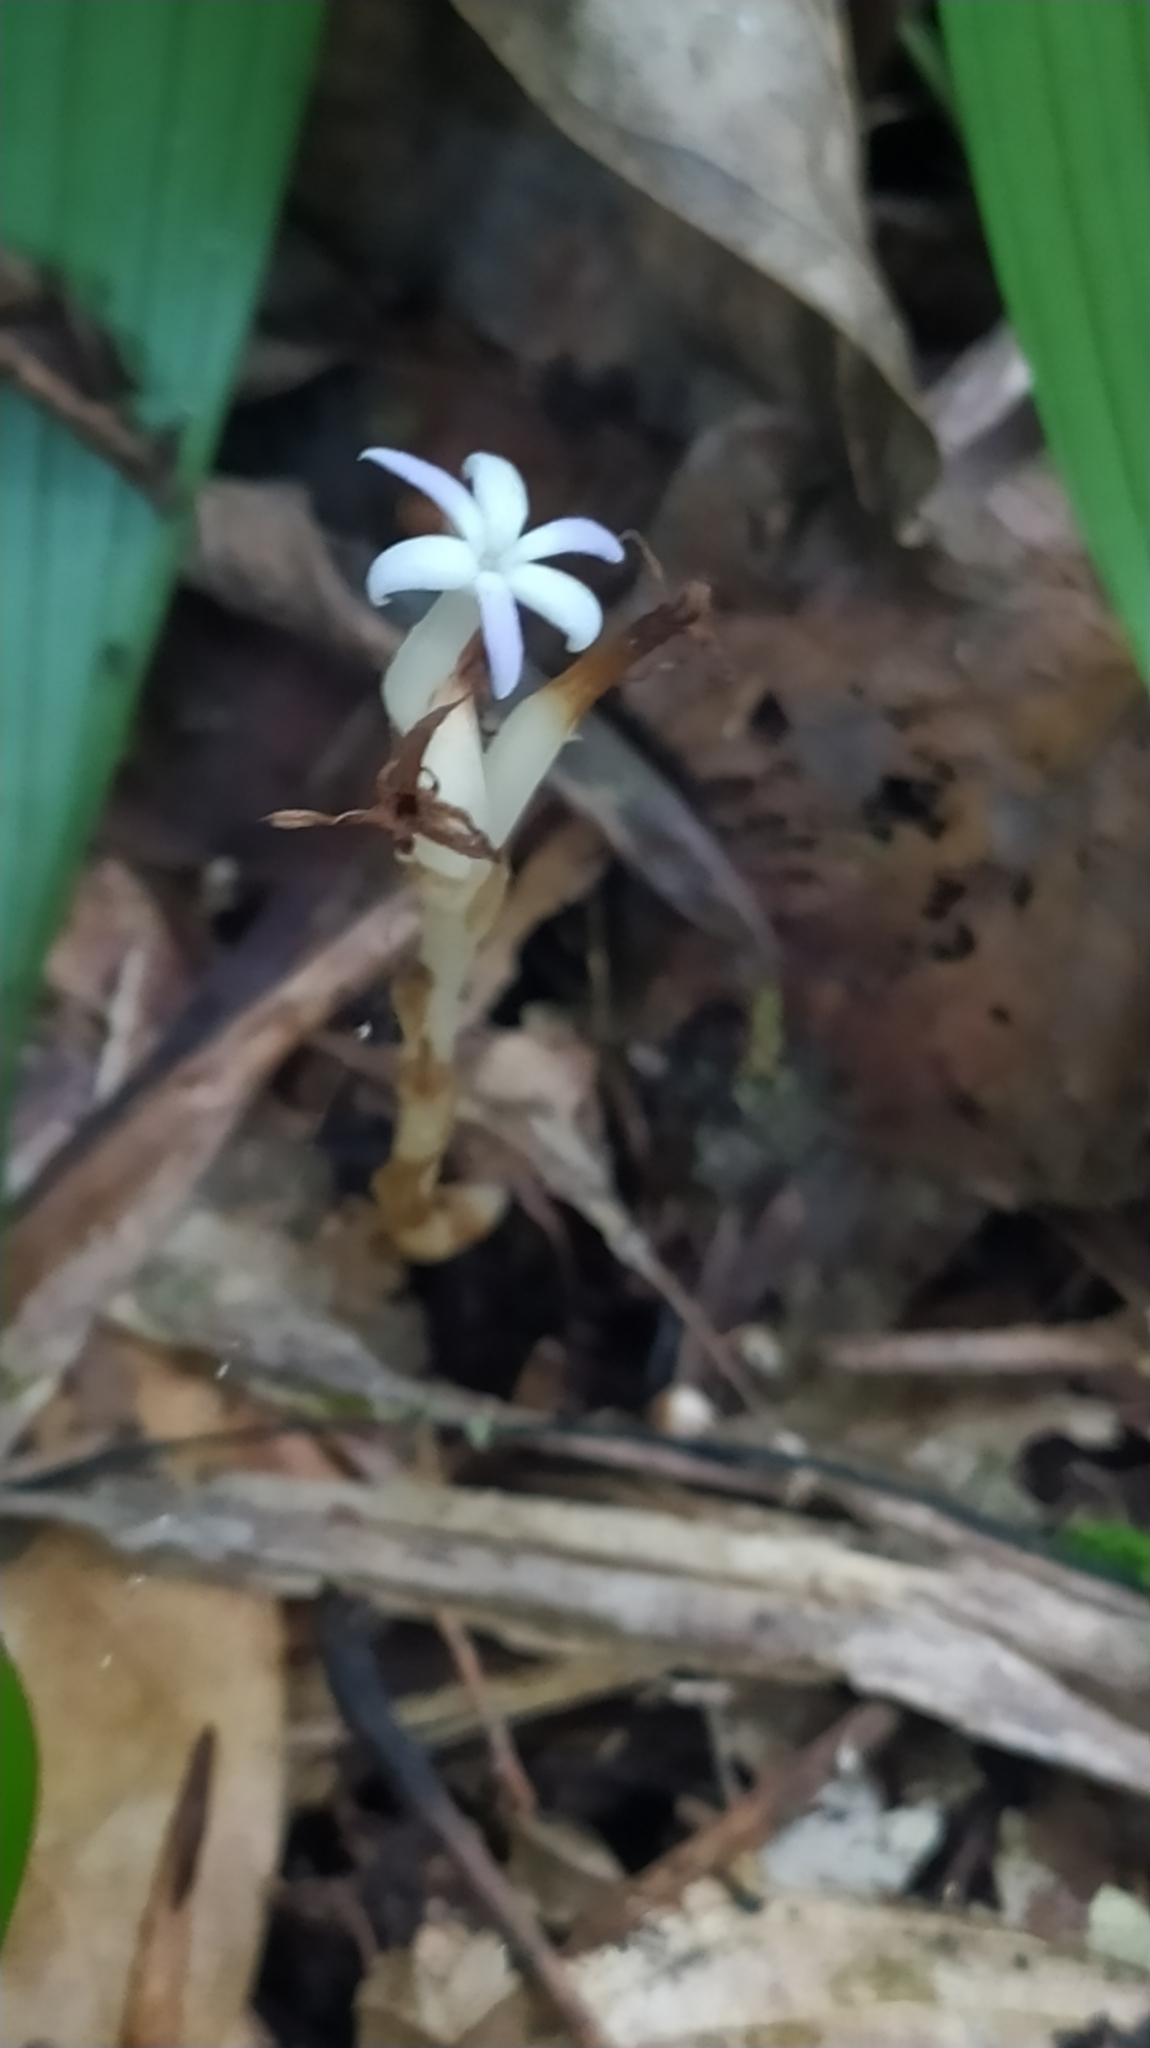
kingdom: Plantae
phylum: Tracheophyta
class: Liliopsida
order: Dioscoreales
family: Burmanniaceae
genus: Campylosiphon
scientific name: Campylosiphon purpurascens
